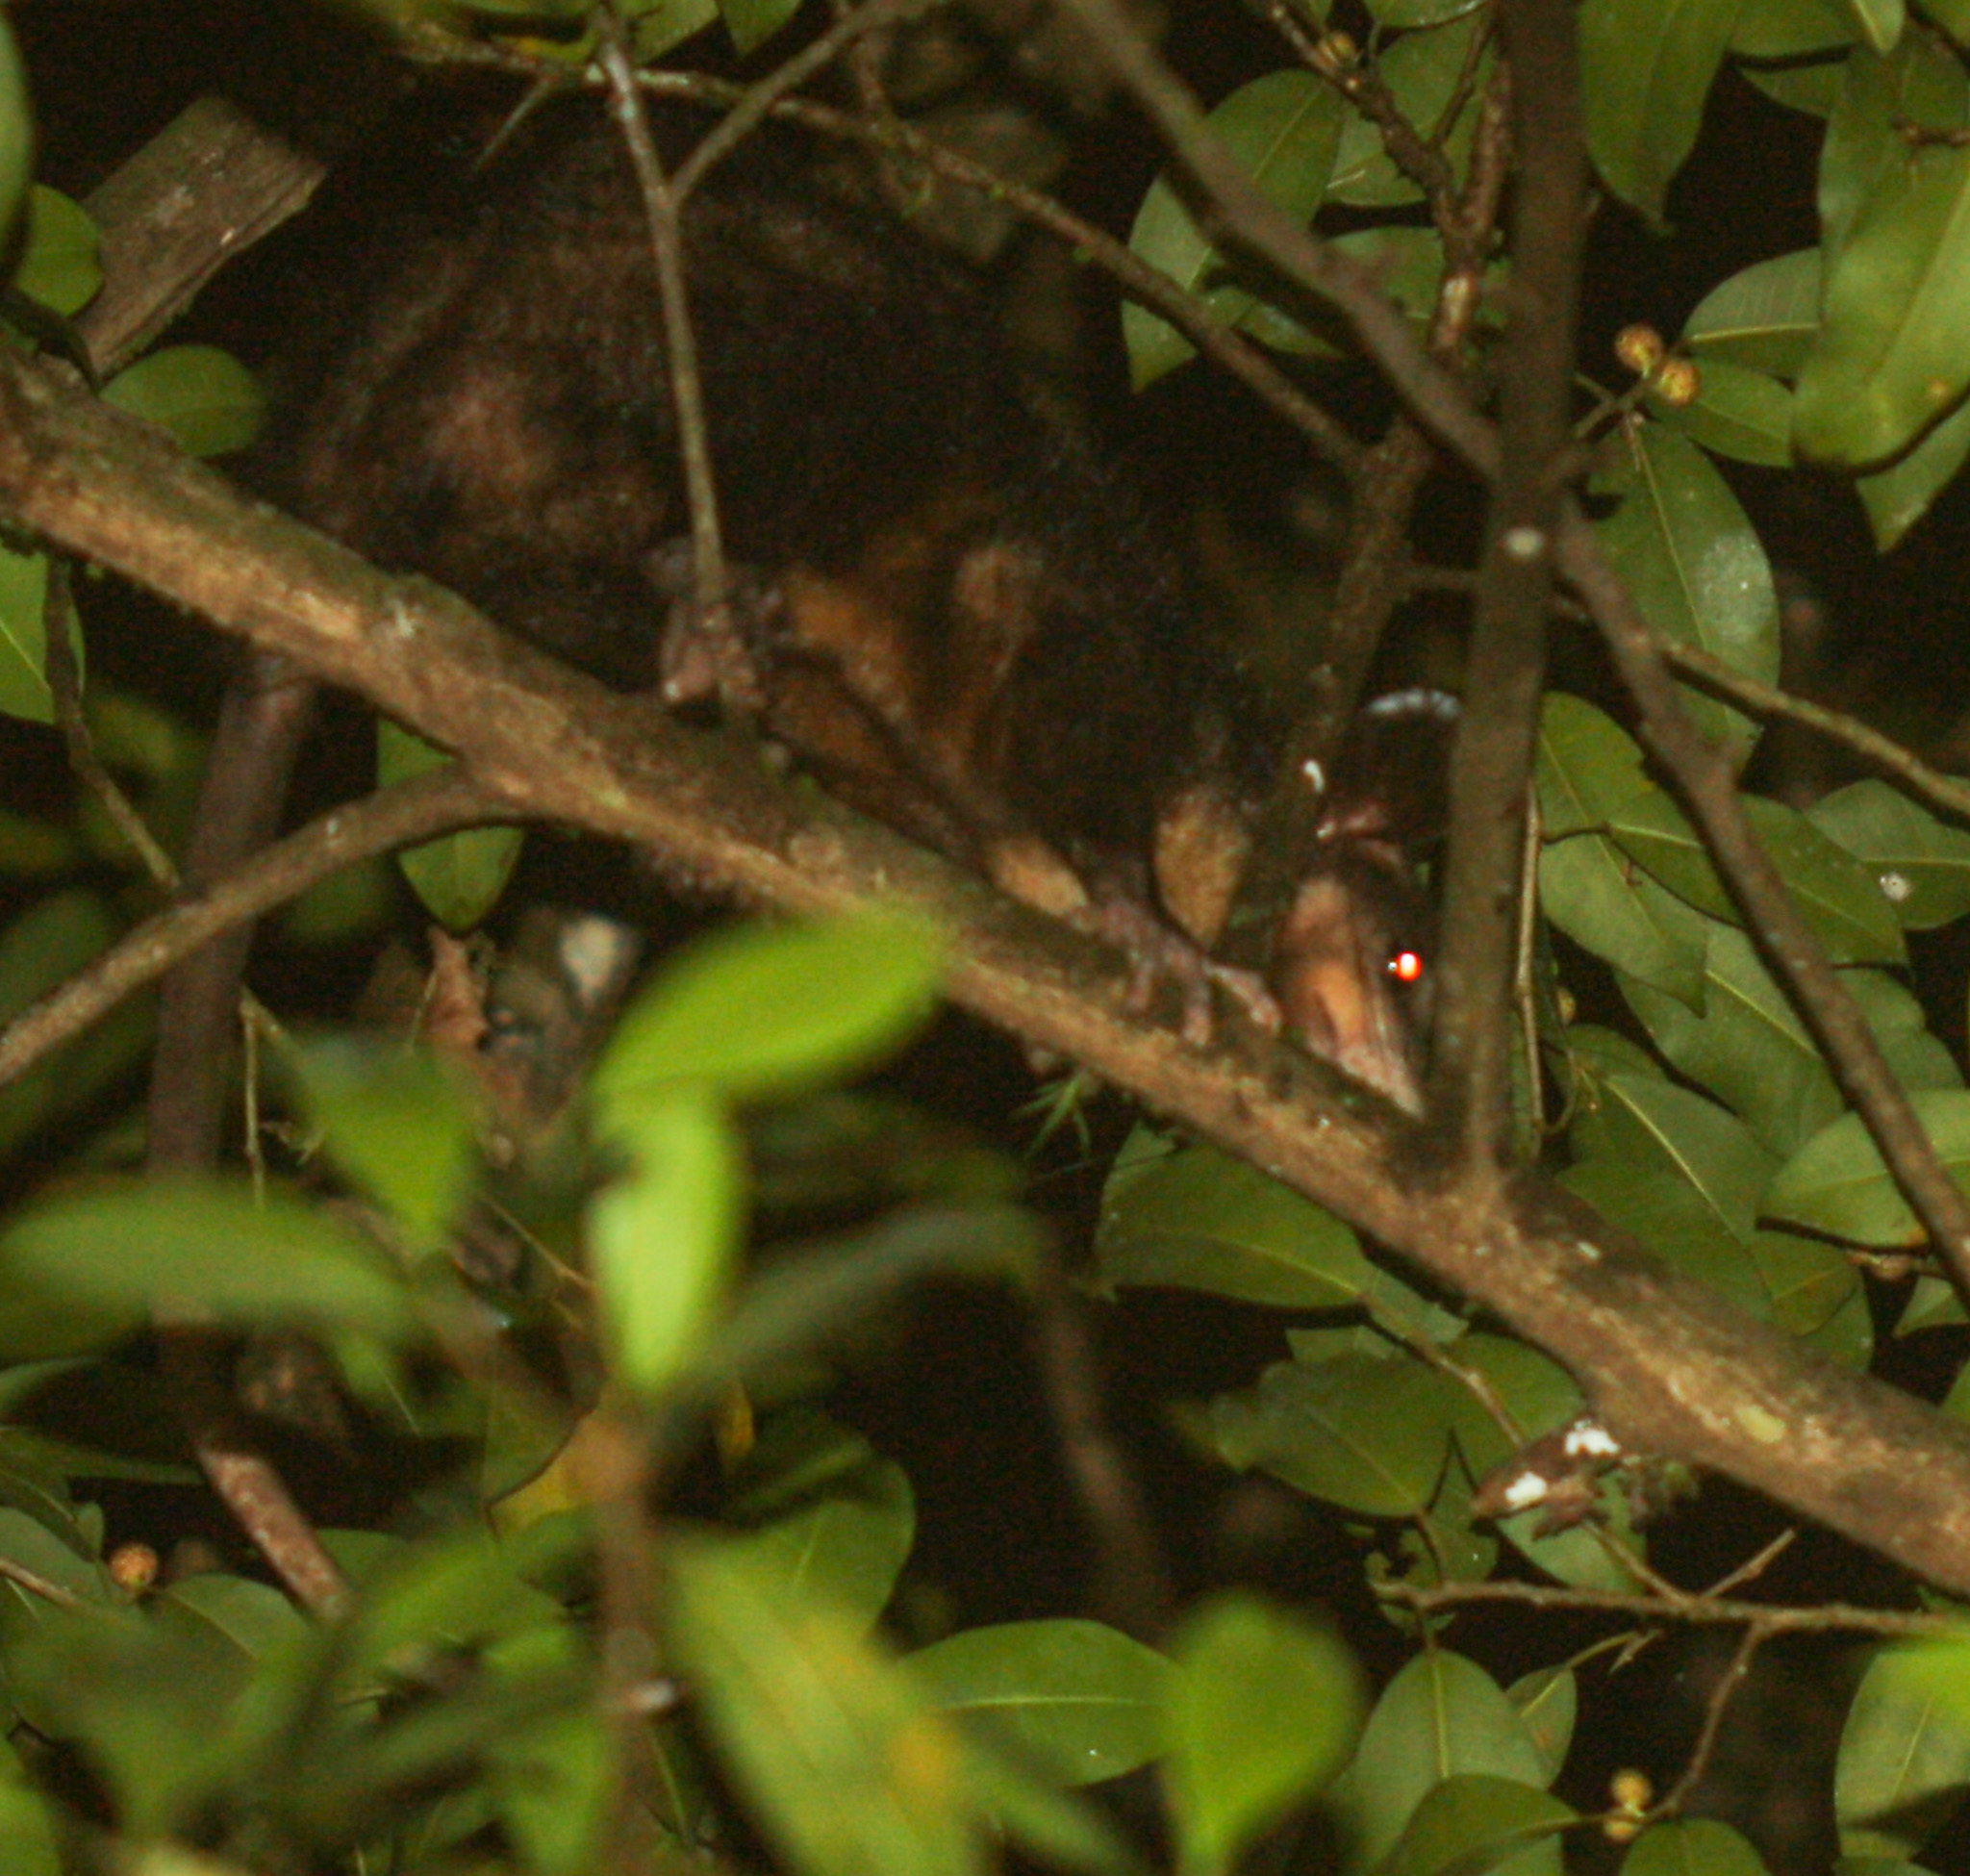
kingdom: Animalia
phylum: Chordata
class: Mammalia
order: Didelphimorphia
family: Didelphidae
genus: Didelphis
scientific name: Didelphis marsupialis
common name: Common opossum
